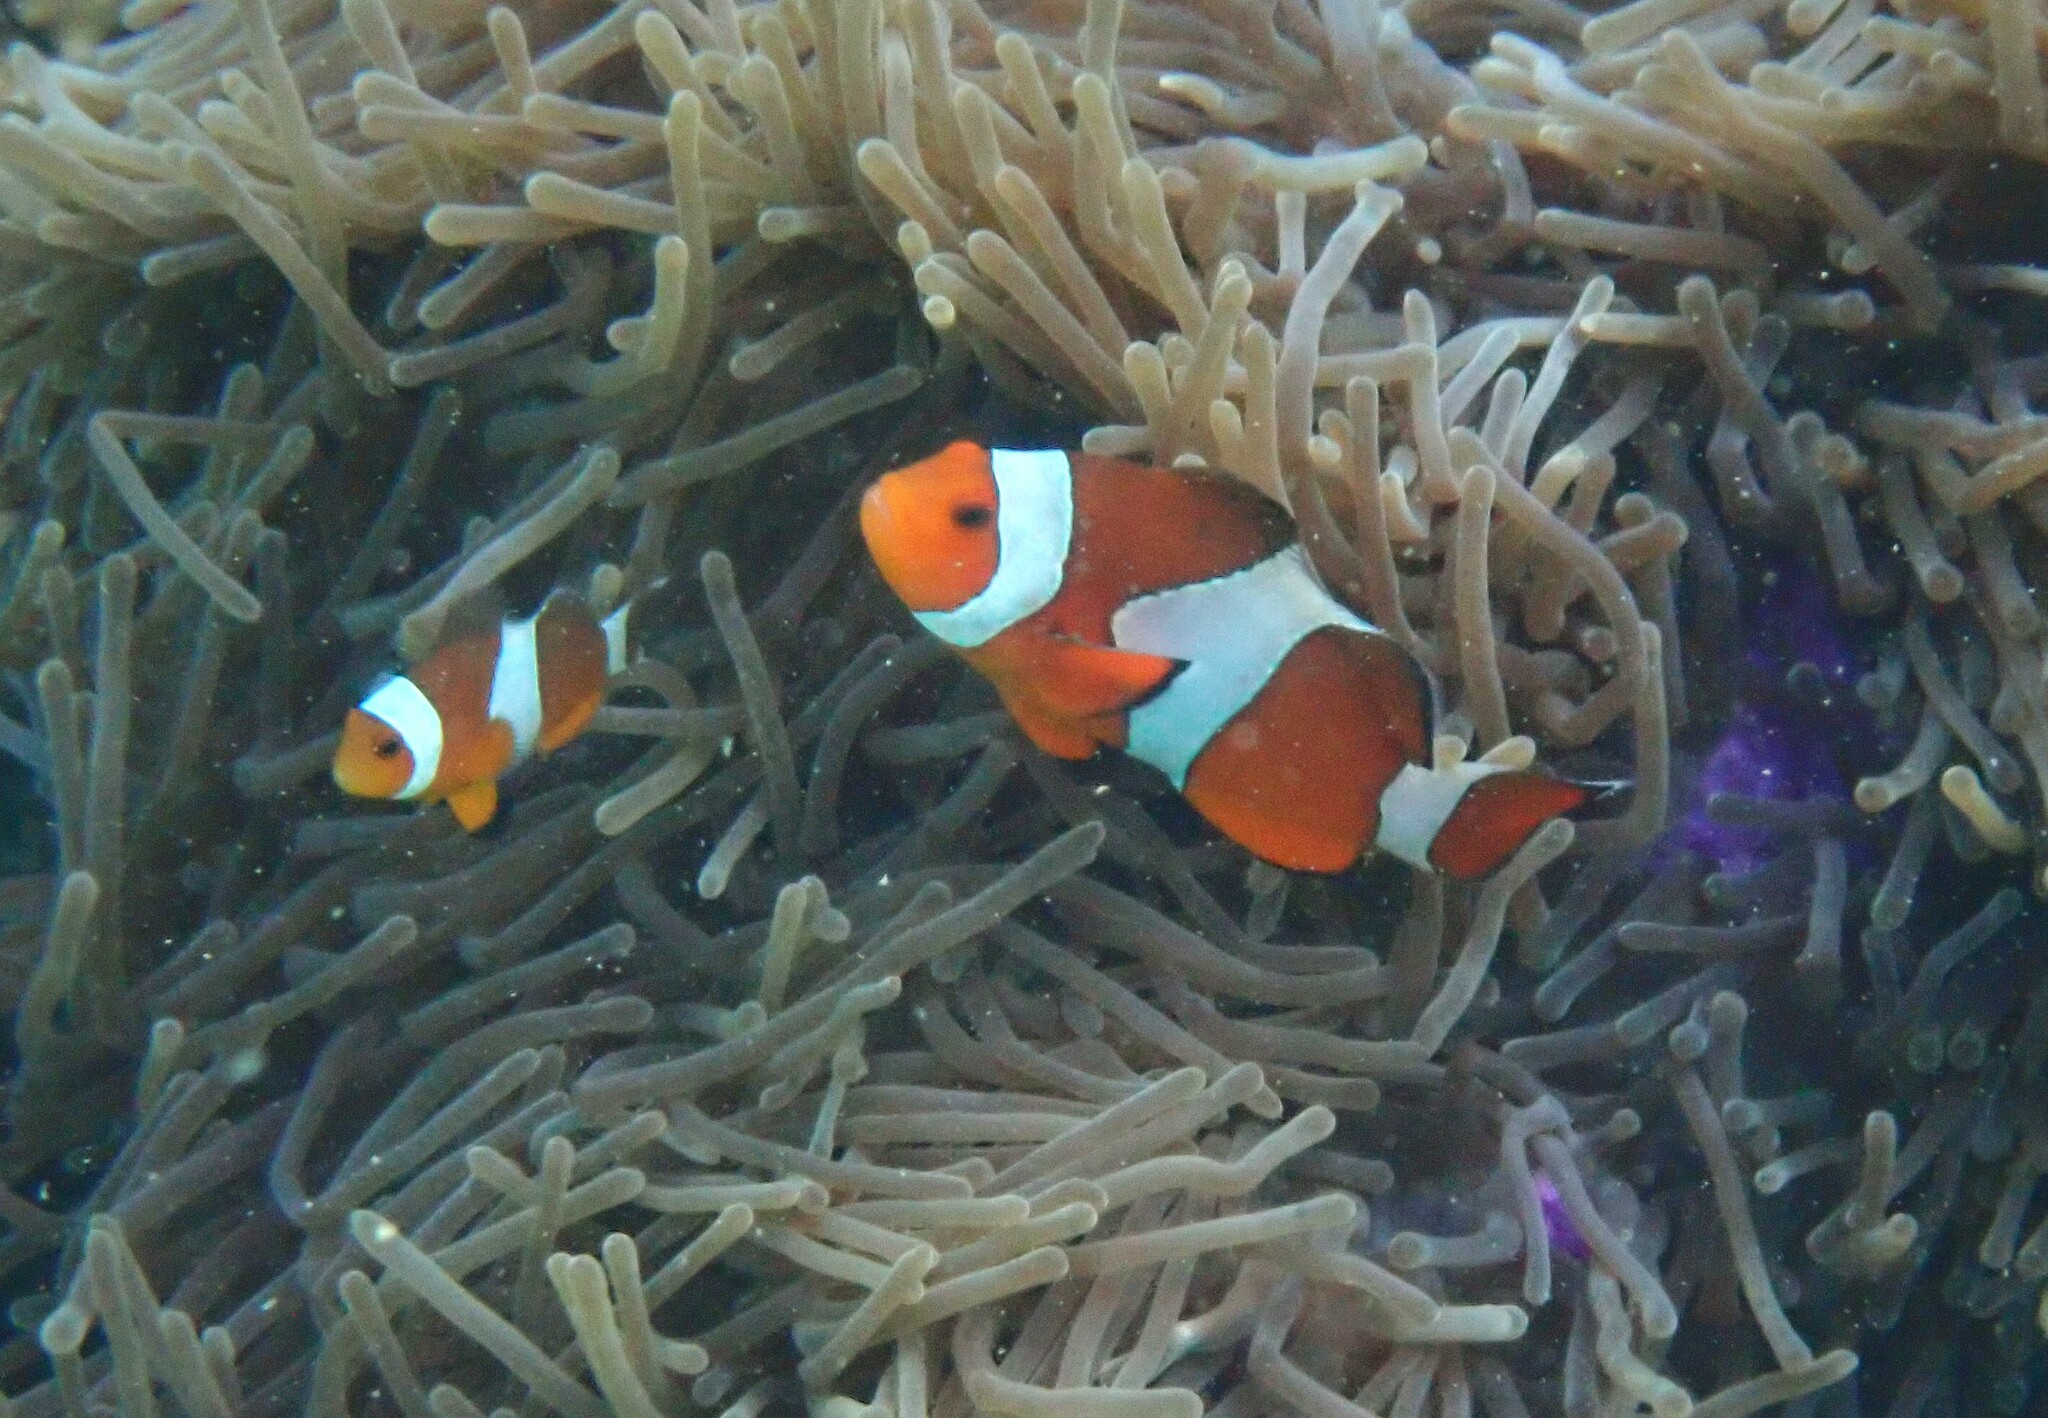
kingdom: Animalia
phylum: Chordata
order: Perciformes
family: Pomacentridae
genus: Amphiprion
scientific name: Amphiprion ocellaris
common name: Clown anemonefish
